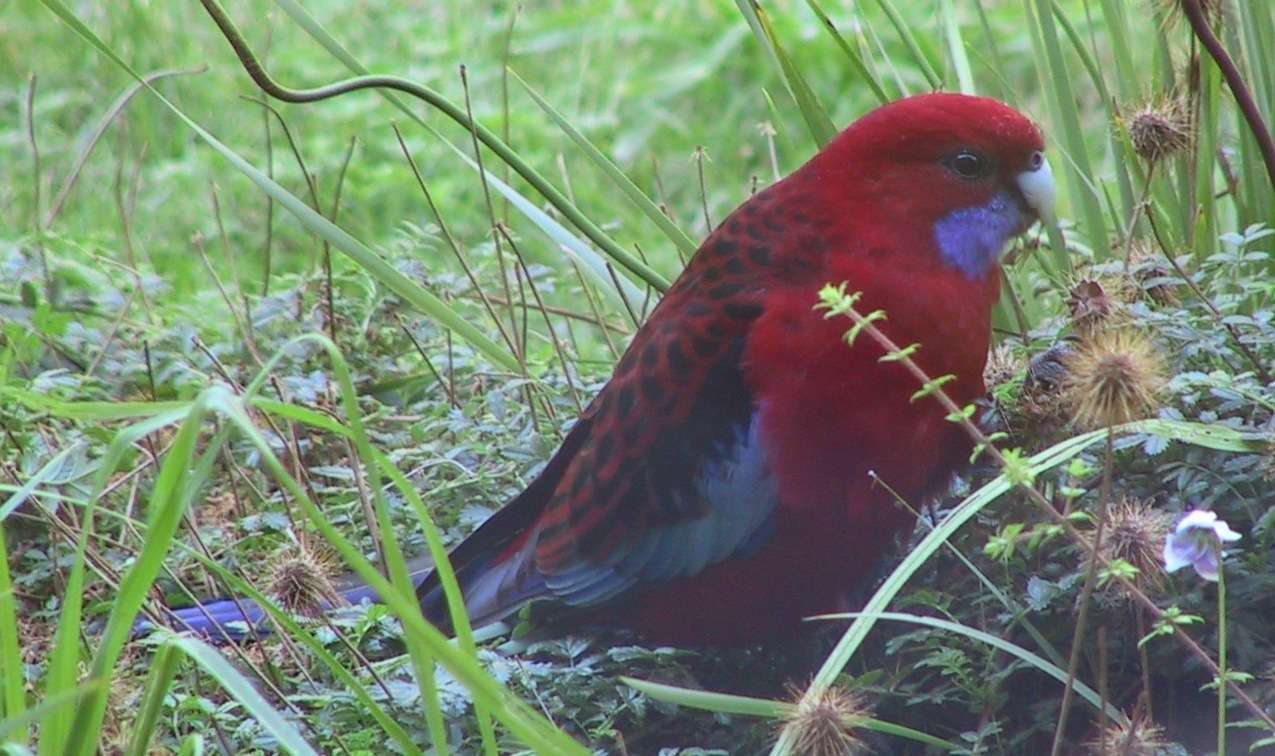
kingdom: Animalia
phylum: Chordata
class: Aves
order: Psittaciformes
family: Psittacidae
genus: Platycercus
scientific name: Platycercus elegans
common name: Crimson rosella
